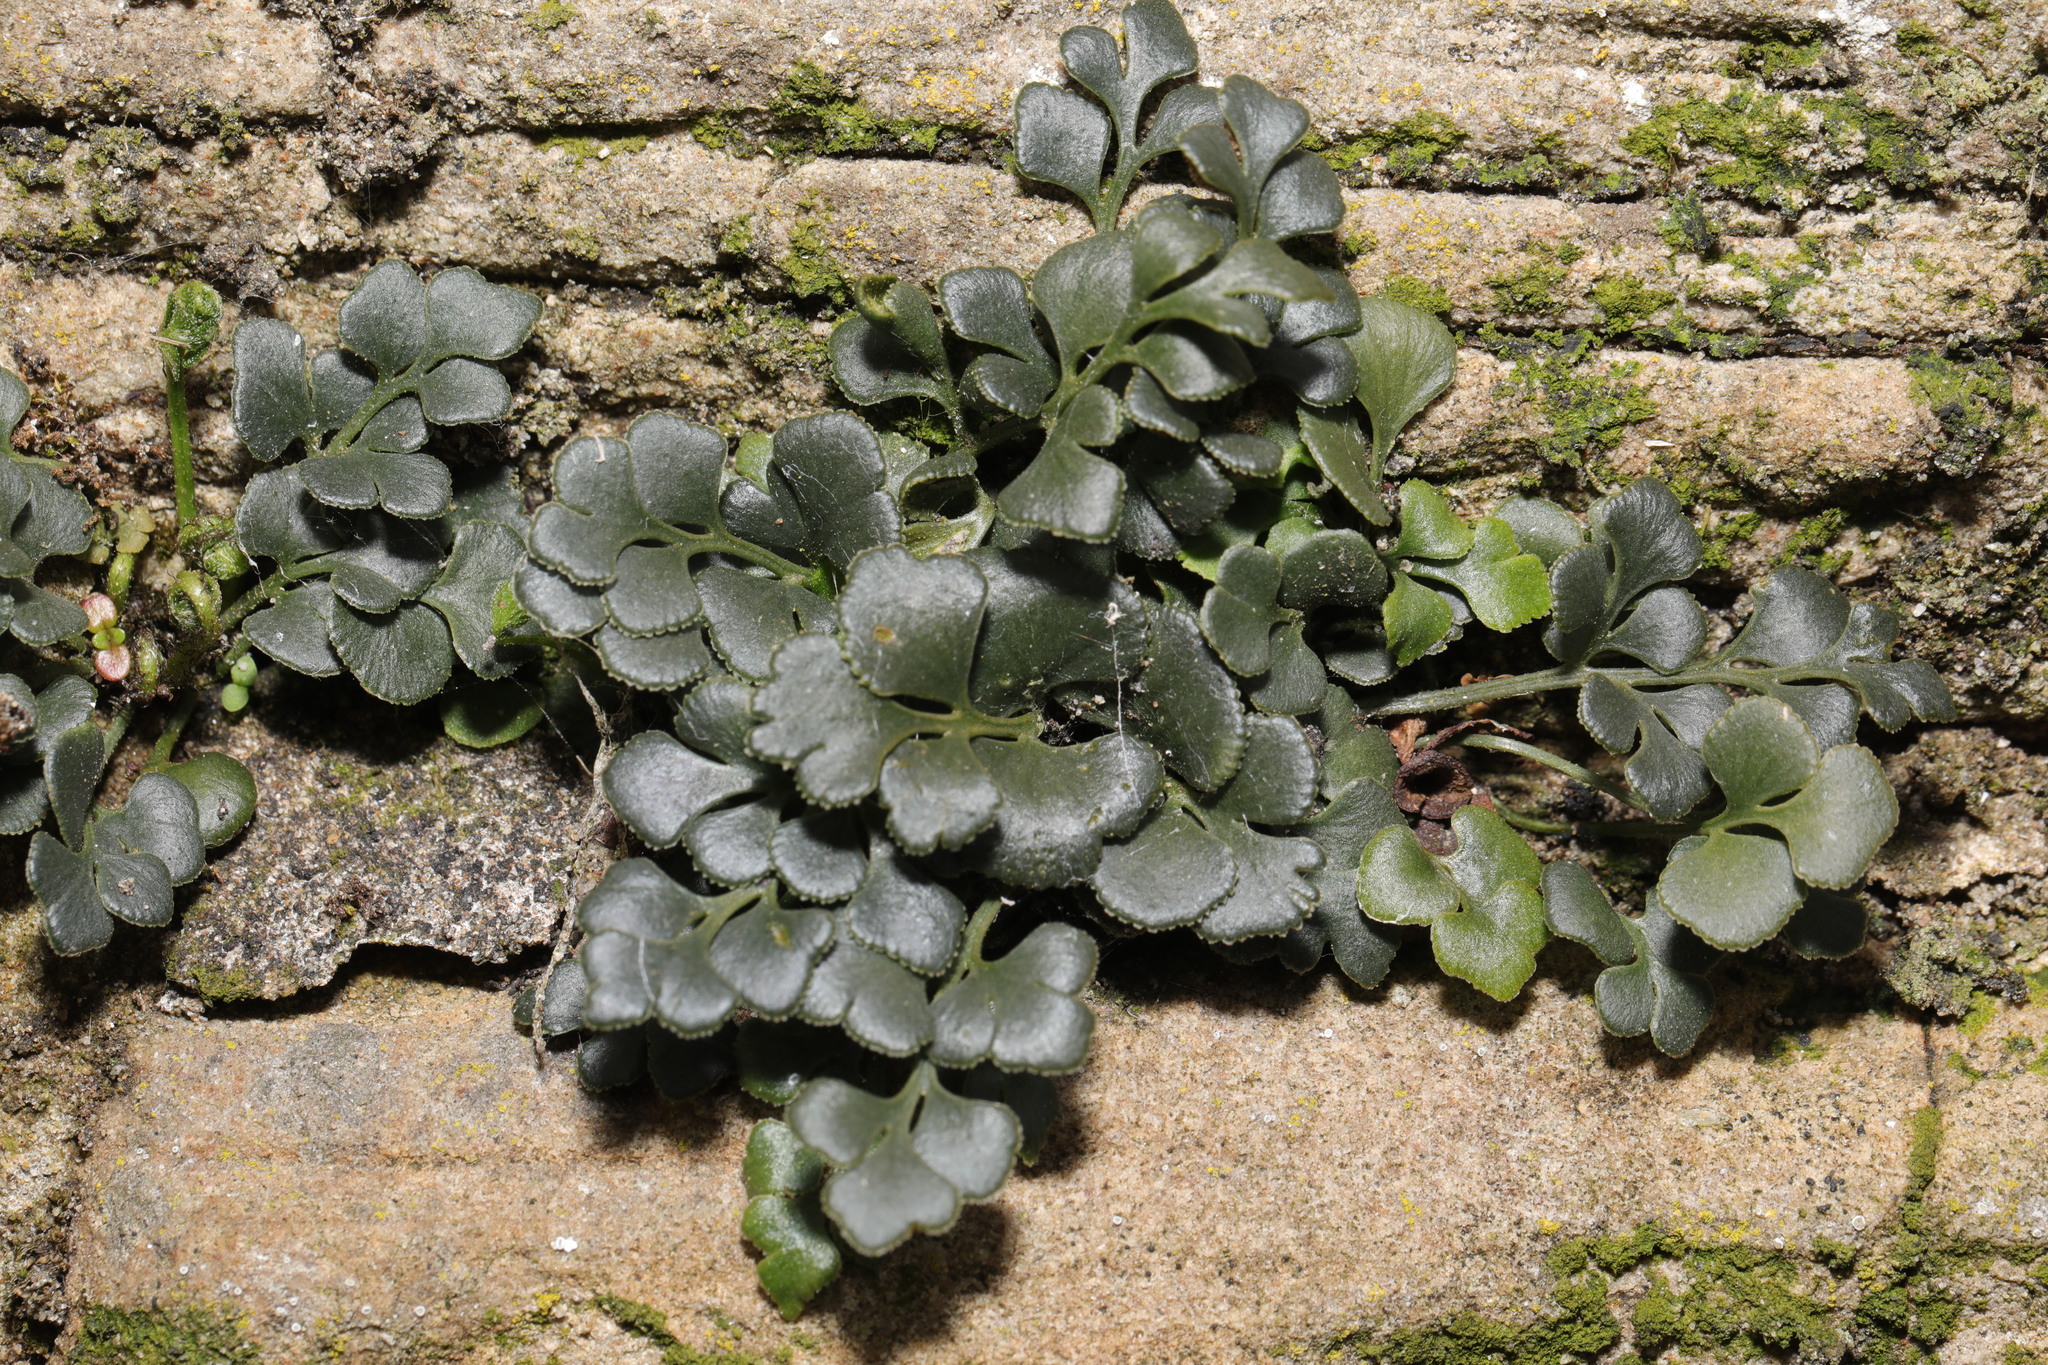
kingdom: Plantae
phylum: Tracheophyta
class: Polypodiopsida
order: Polypodiales
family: Aspleniaceae
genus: Asplenium
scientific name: Asplenium ruta-muraria
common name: Wall-rue
